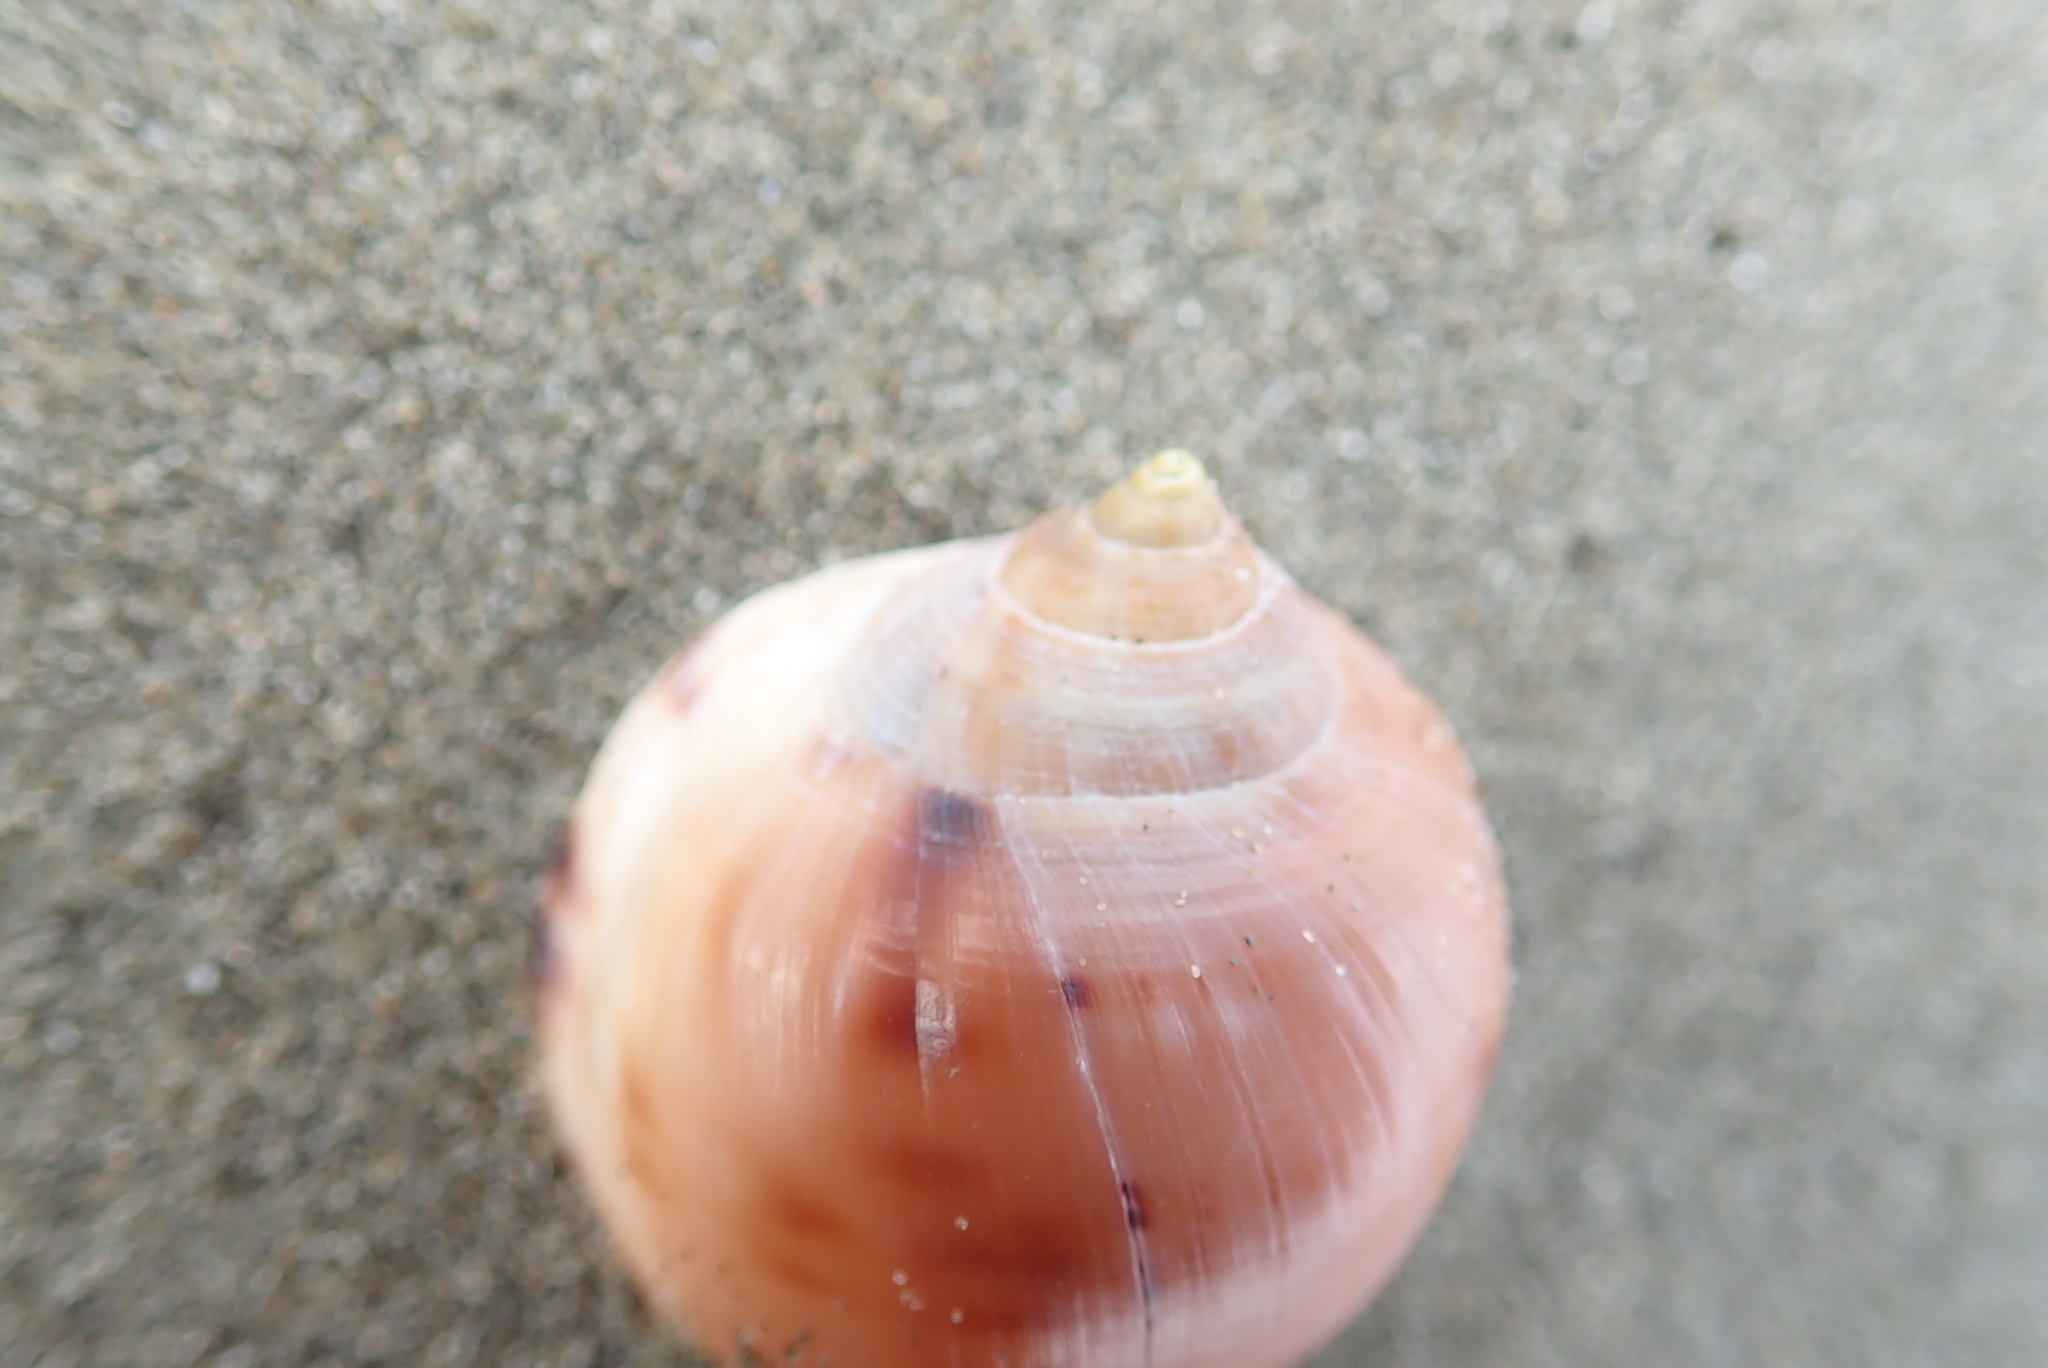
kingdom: Animalia
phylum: Mollusca
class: Gastropoda
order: Littorinimorpha
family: Cassidae
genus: Semicassis
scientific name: Semicassis pyrum
